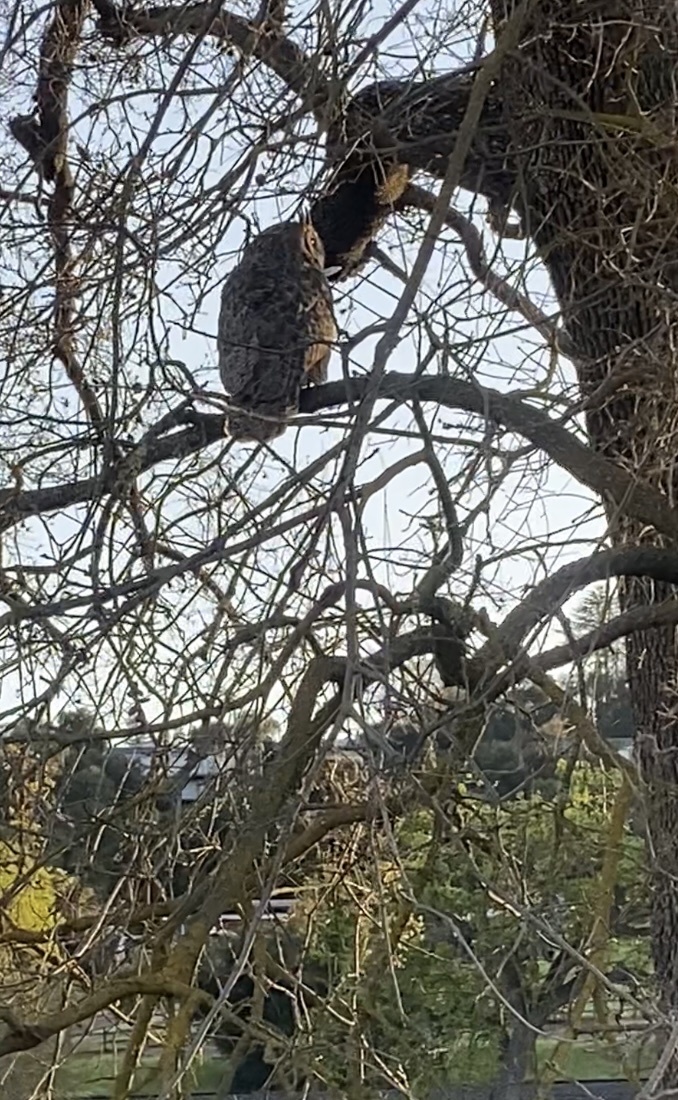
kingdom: Animalia
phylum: Chordata
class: Aves
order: Strigiformes
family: Strigidae
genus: Bubo
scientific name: Bubo virginianus
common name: Great horned owl
